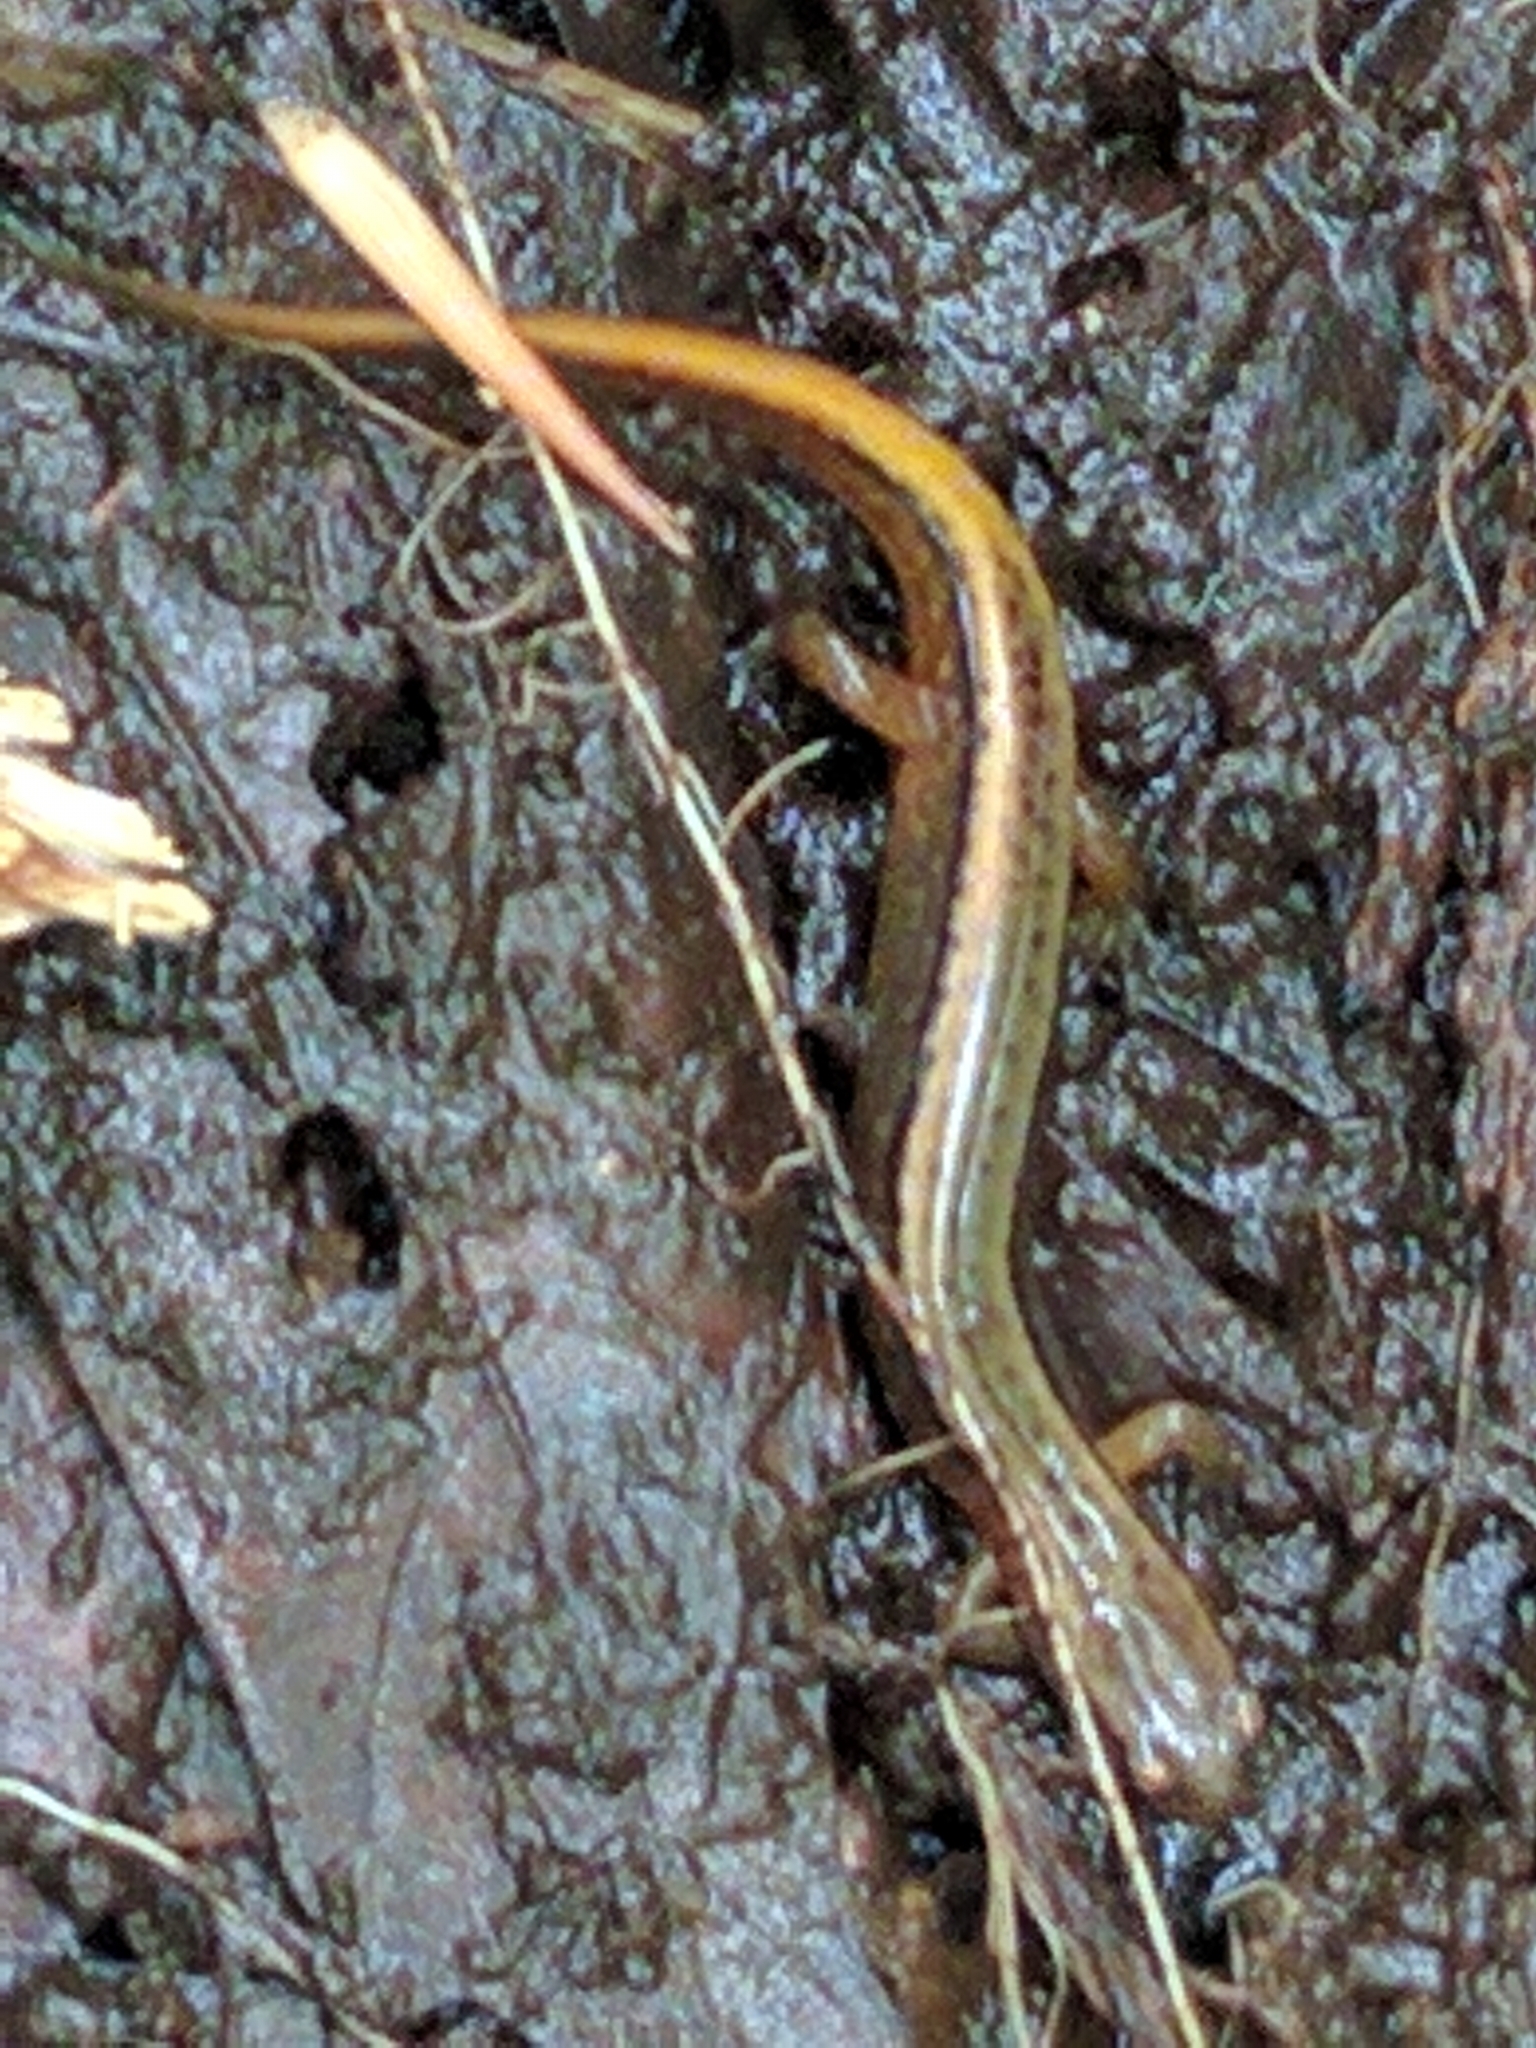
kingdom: Animalia
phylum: Chordata
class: Amphibia
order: Caudata
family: Plethodontidae
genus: Eurycea
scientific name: Eurycea bislineata
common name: Northern two-lined salamander
